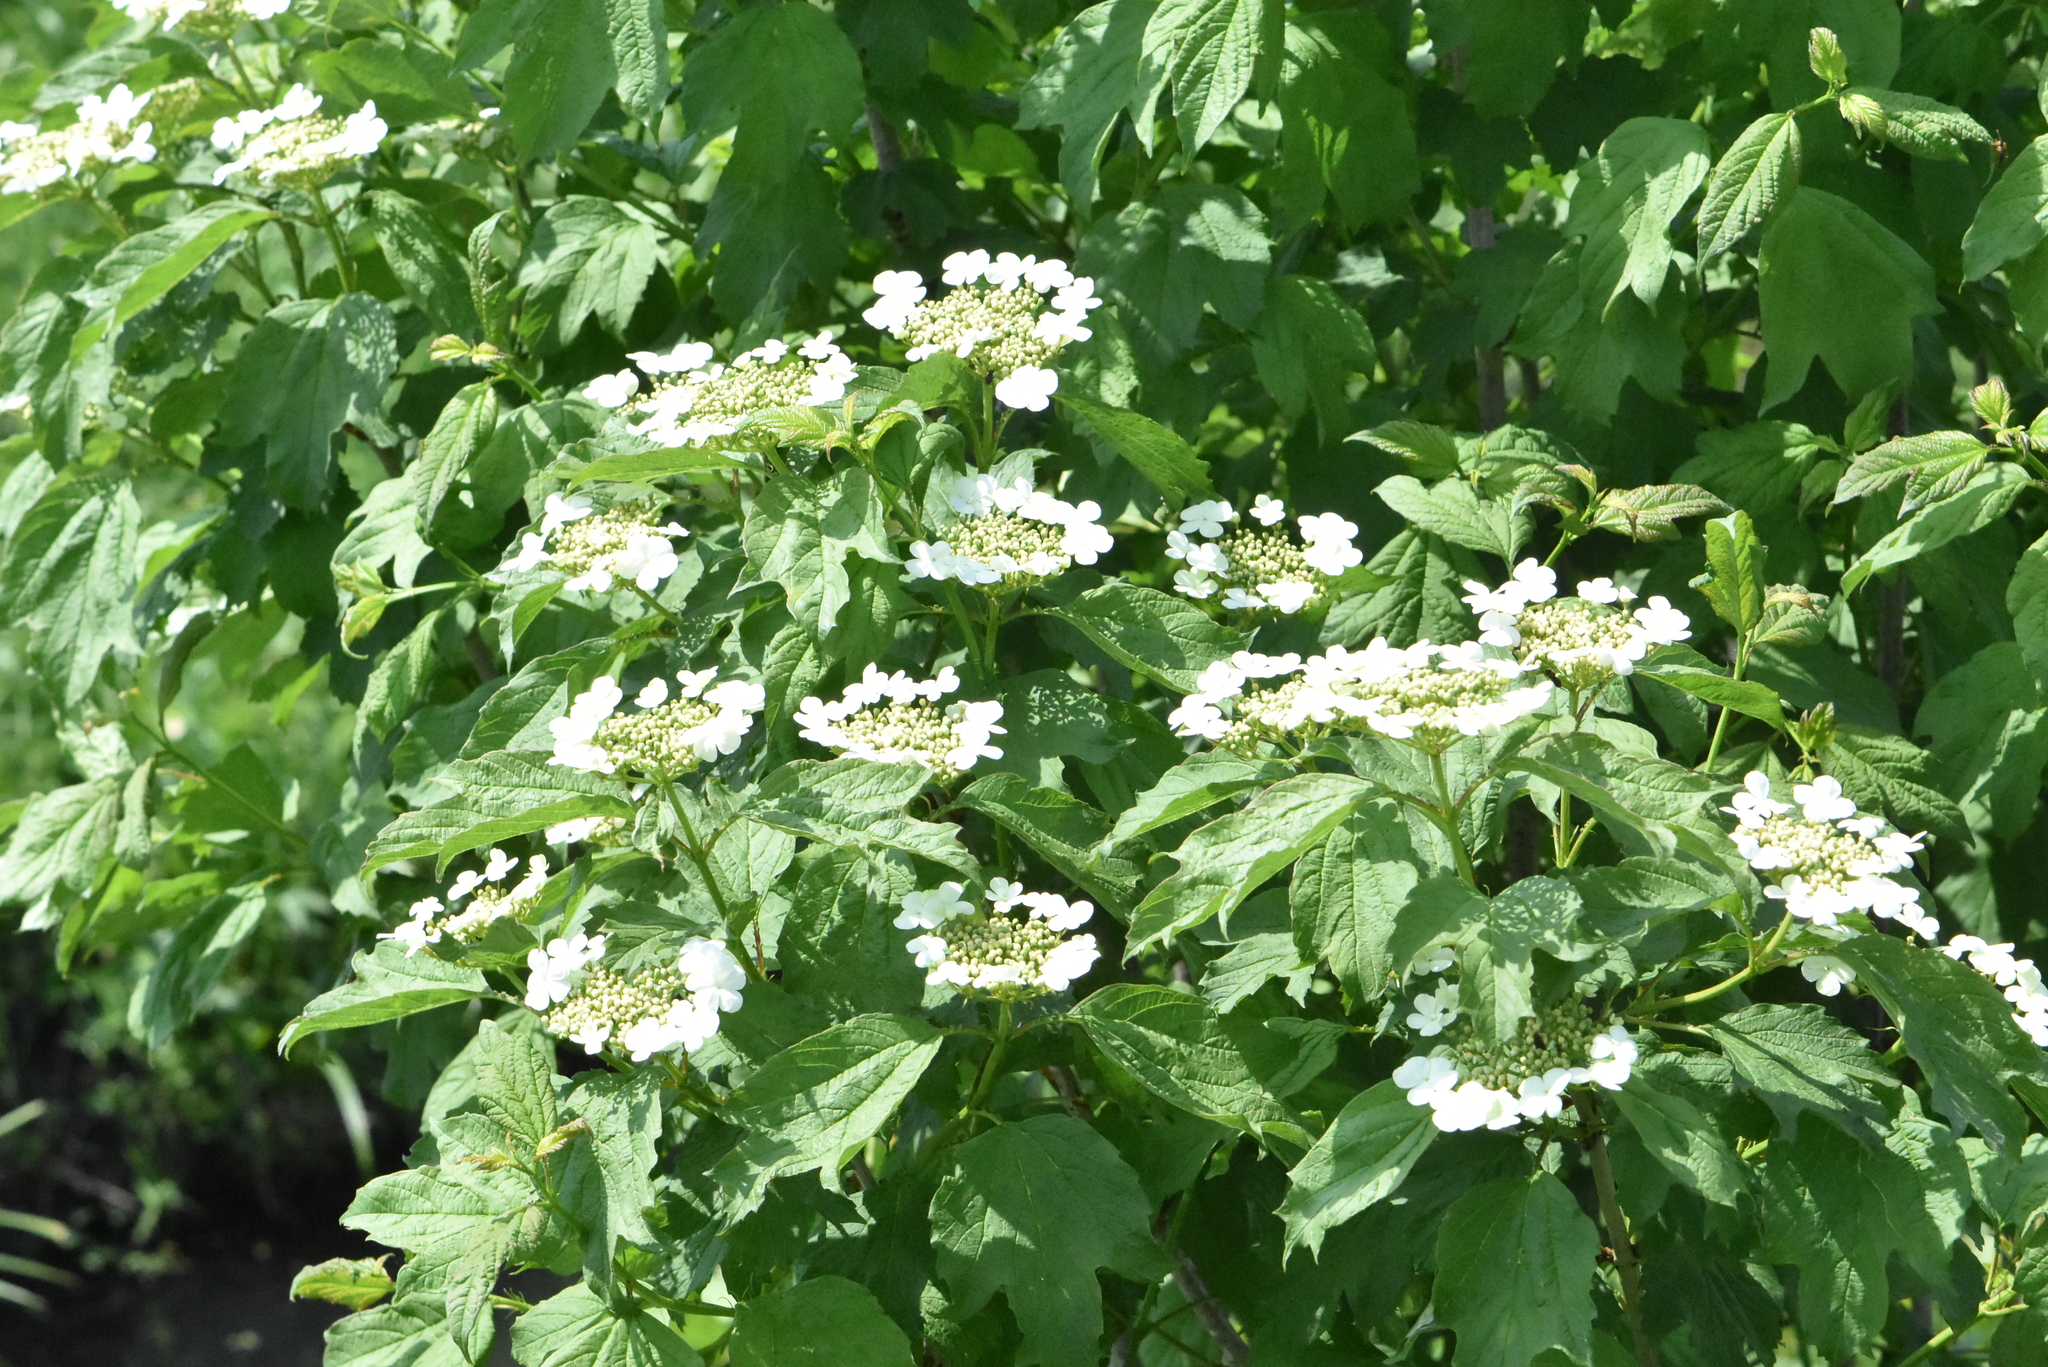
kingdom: Plantae
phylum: Tracheophyta
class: Magnoliopsida
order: Dipsacales
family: Viburnaceae
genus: Viburnum
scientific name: Viburnum opulus
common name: Guelder-rose
